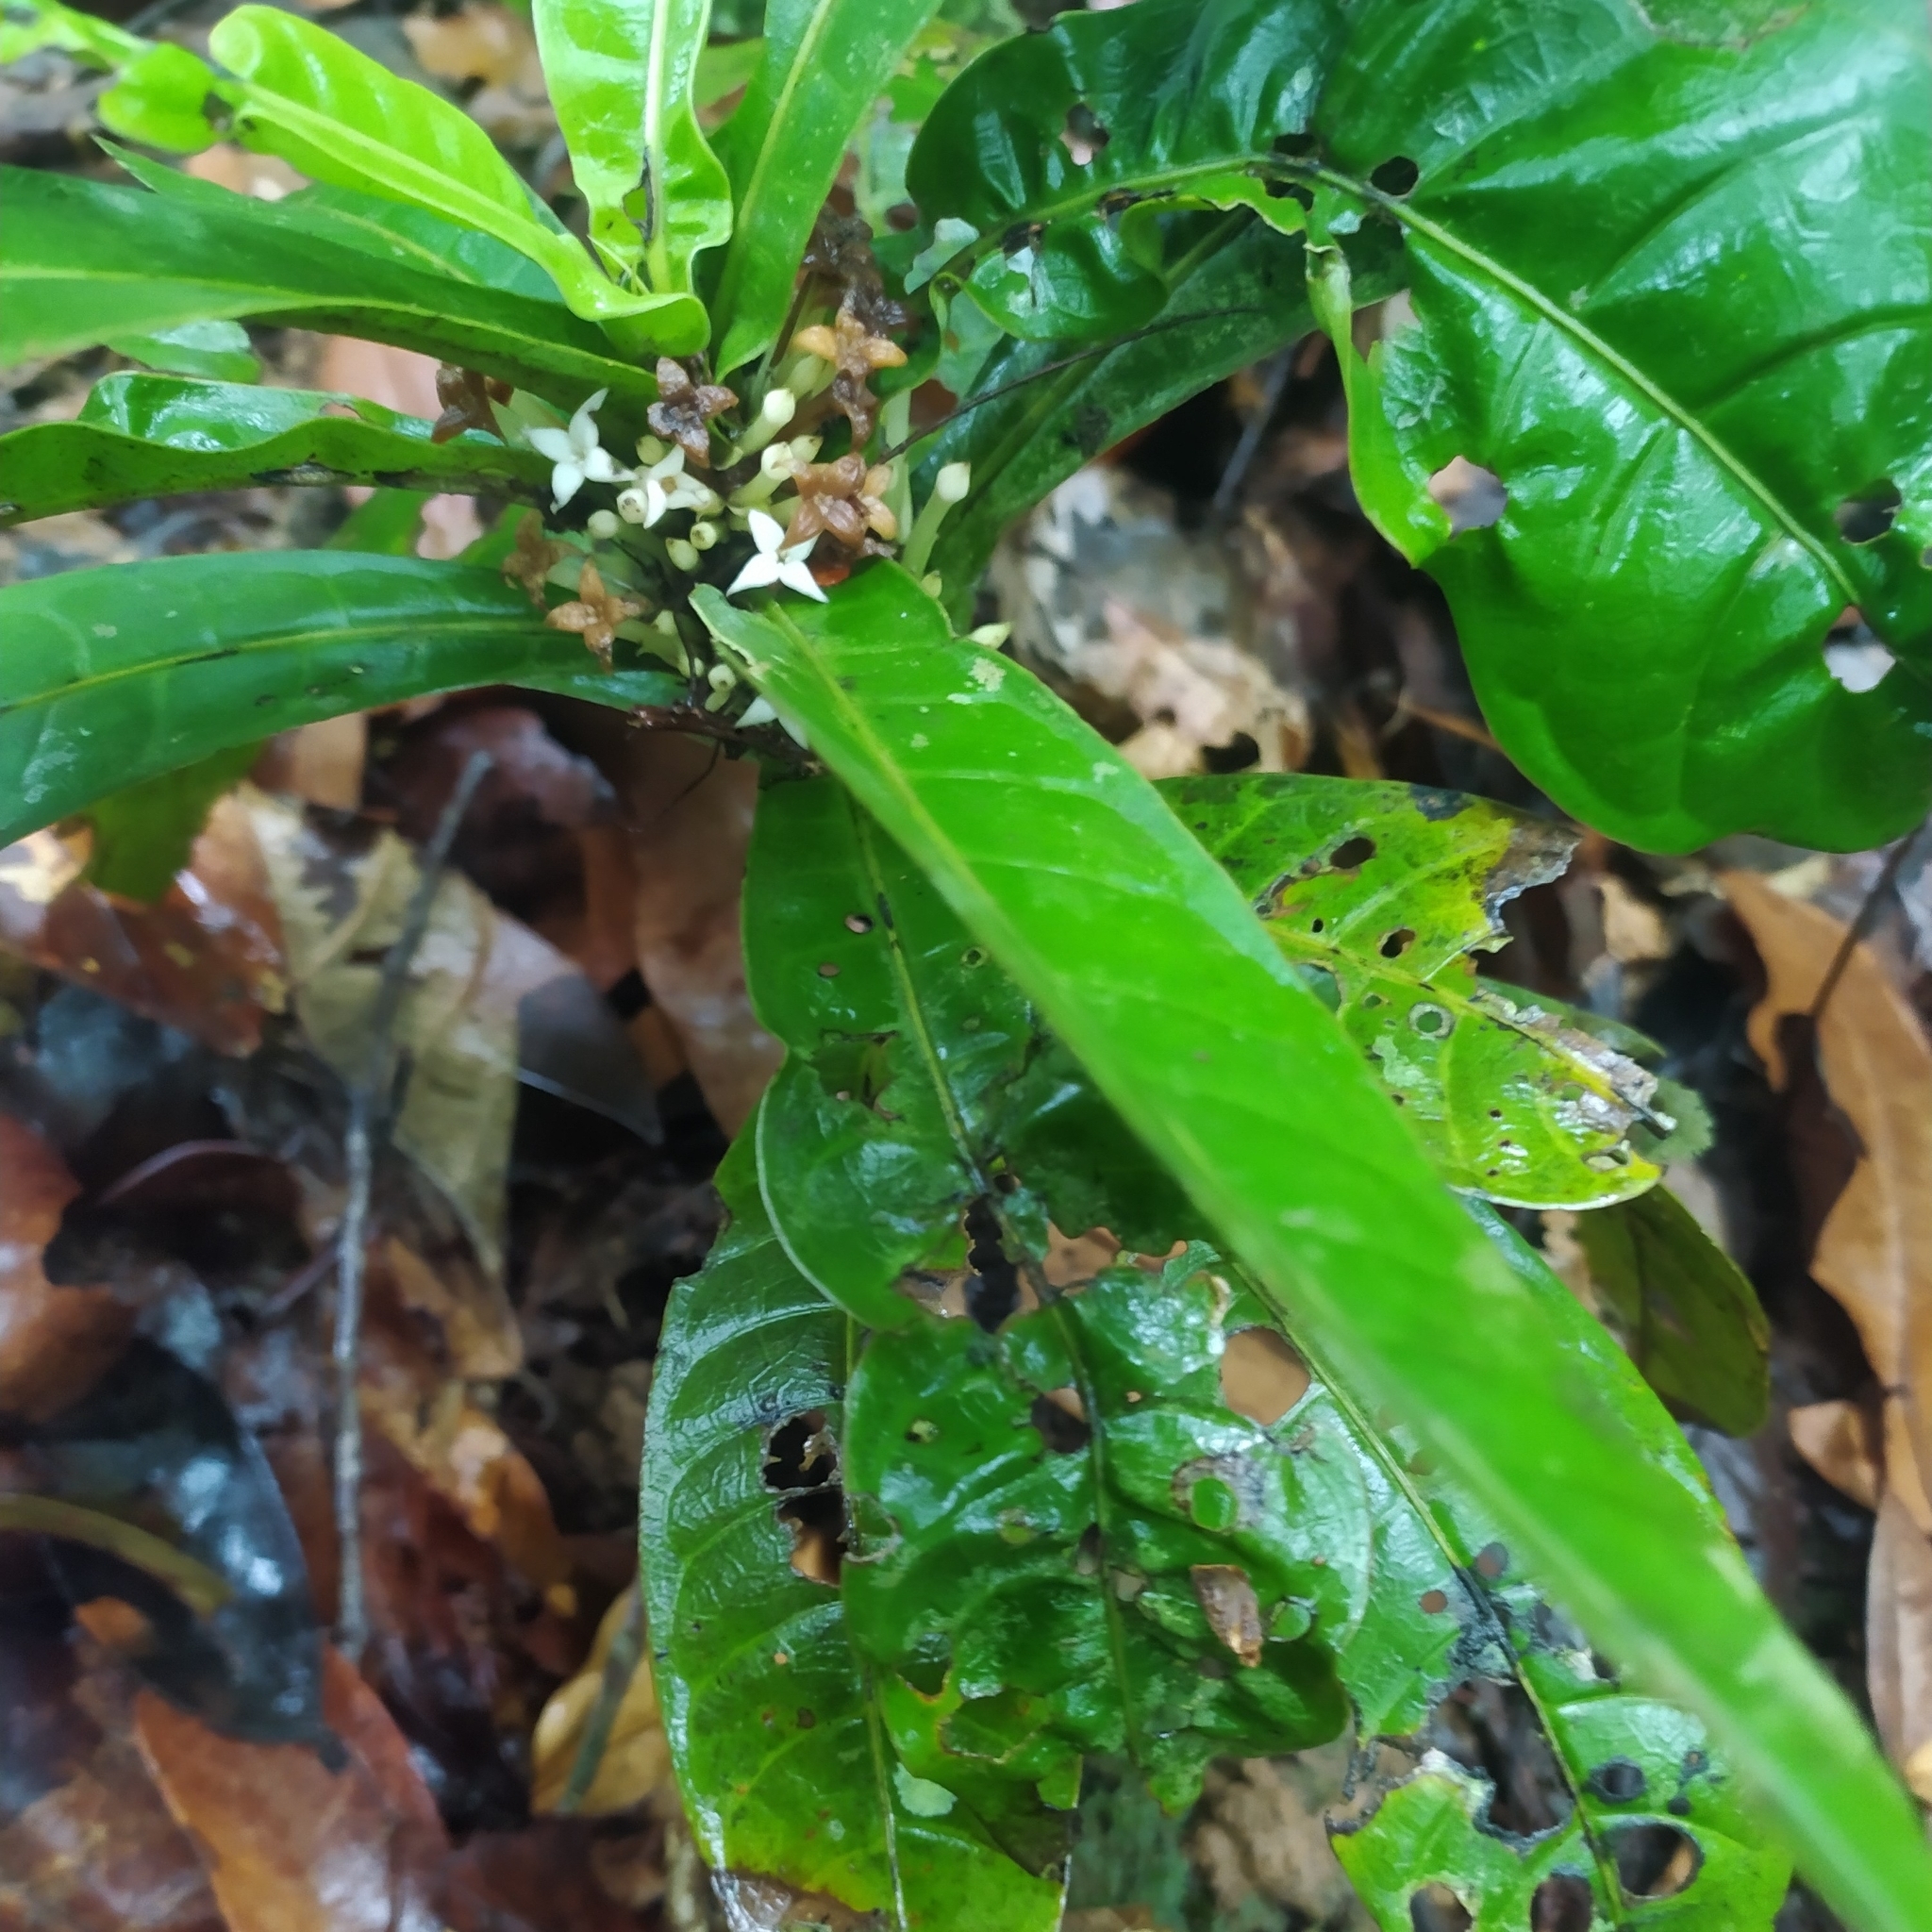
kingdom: Plantae
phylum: Tracheophyta
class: Magnoliopsida
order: Gentianales
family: Rubiaceae
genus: Faramea
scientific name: Faramea tinguana
